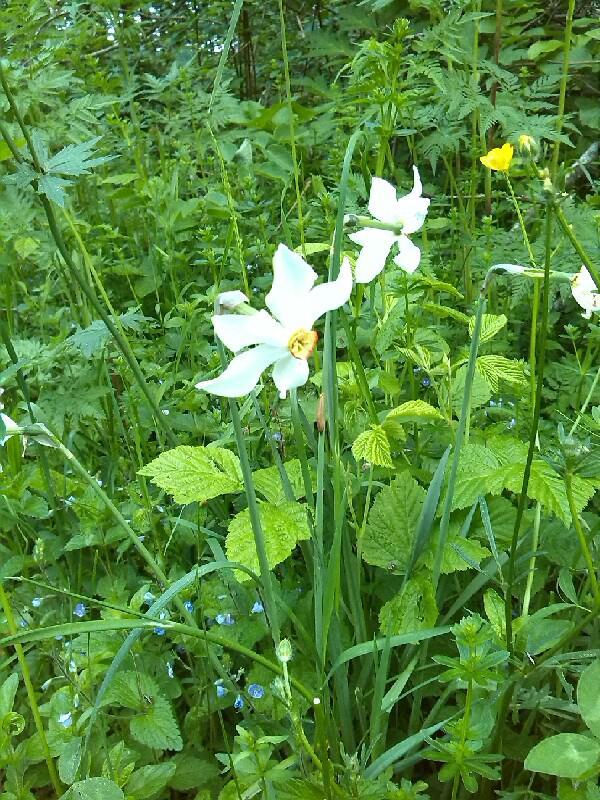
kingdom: Plantae
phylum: Tracheophyta
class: Liliopsida
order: Asparagales
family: Amaryllidaceae
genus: Narcissus
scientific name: Narcissus poeticus
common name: Pheasant's-eye daffodil
